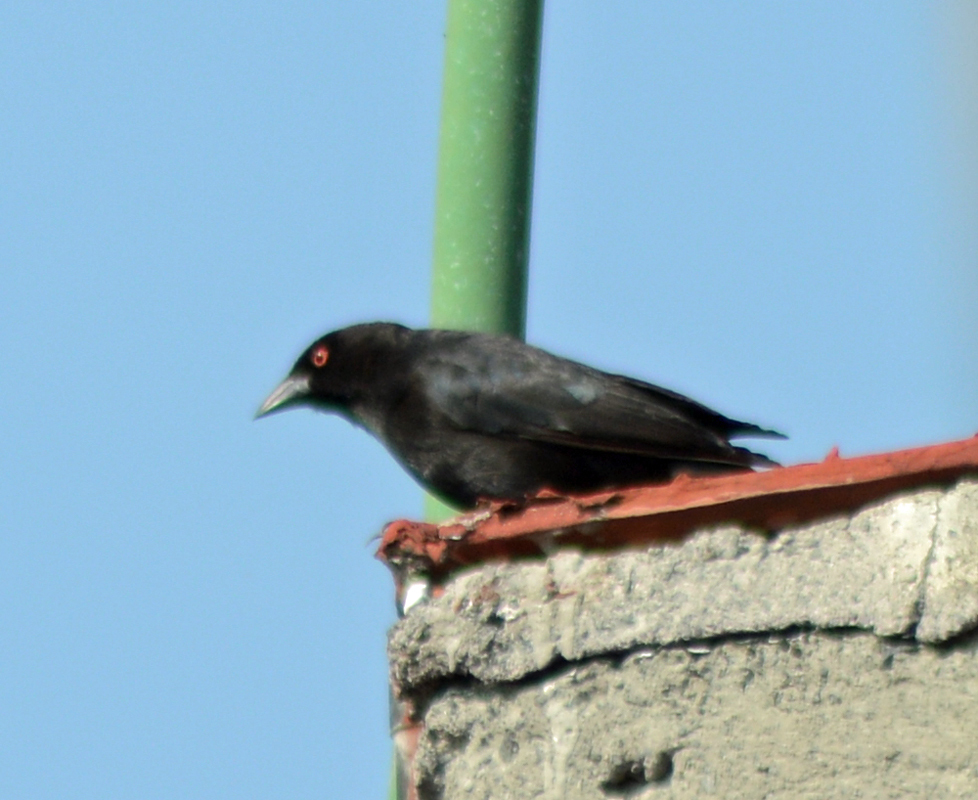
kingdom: Animalia
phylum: Chordata
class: Aves
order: Passeriformes
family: Icteridae
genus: Molothrus
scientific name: Molothrus aeneus
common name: Bronzed cowbird
